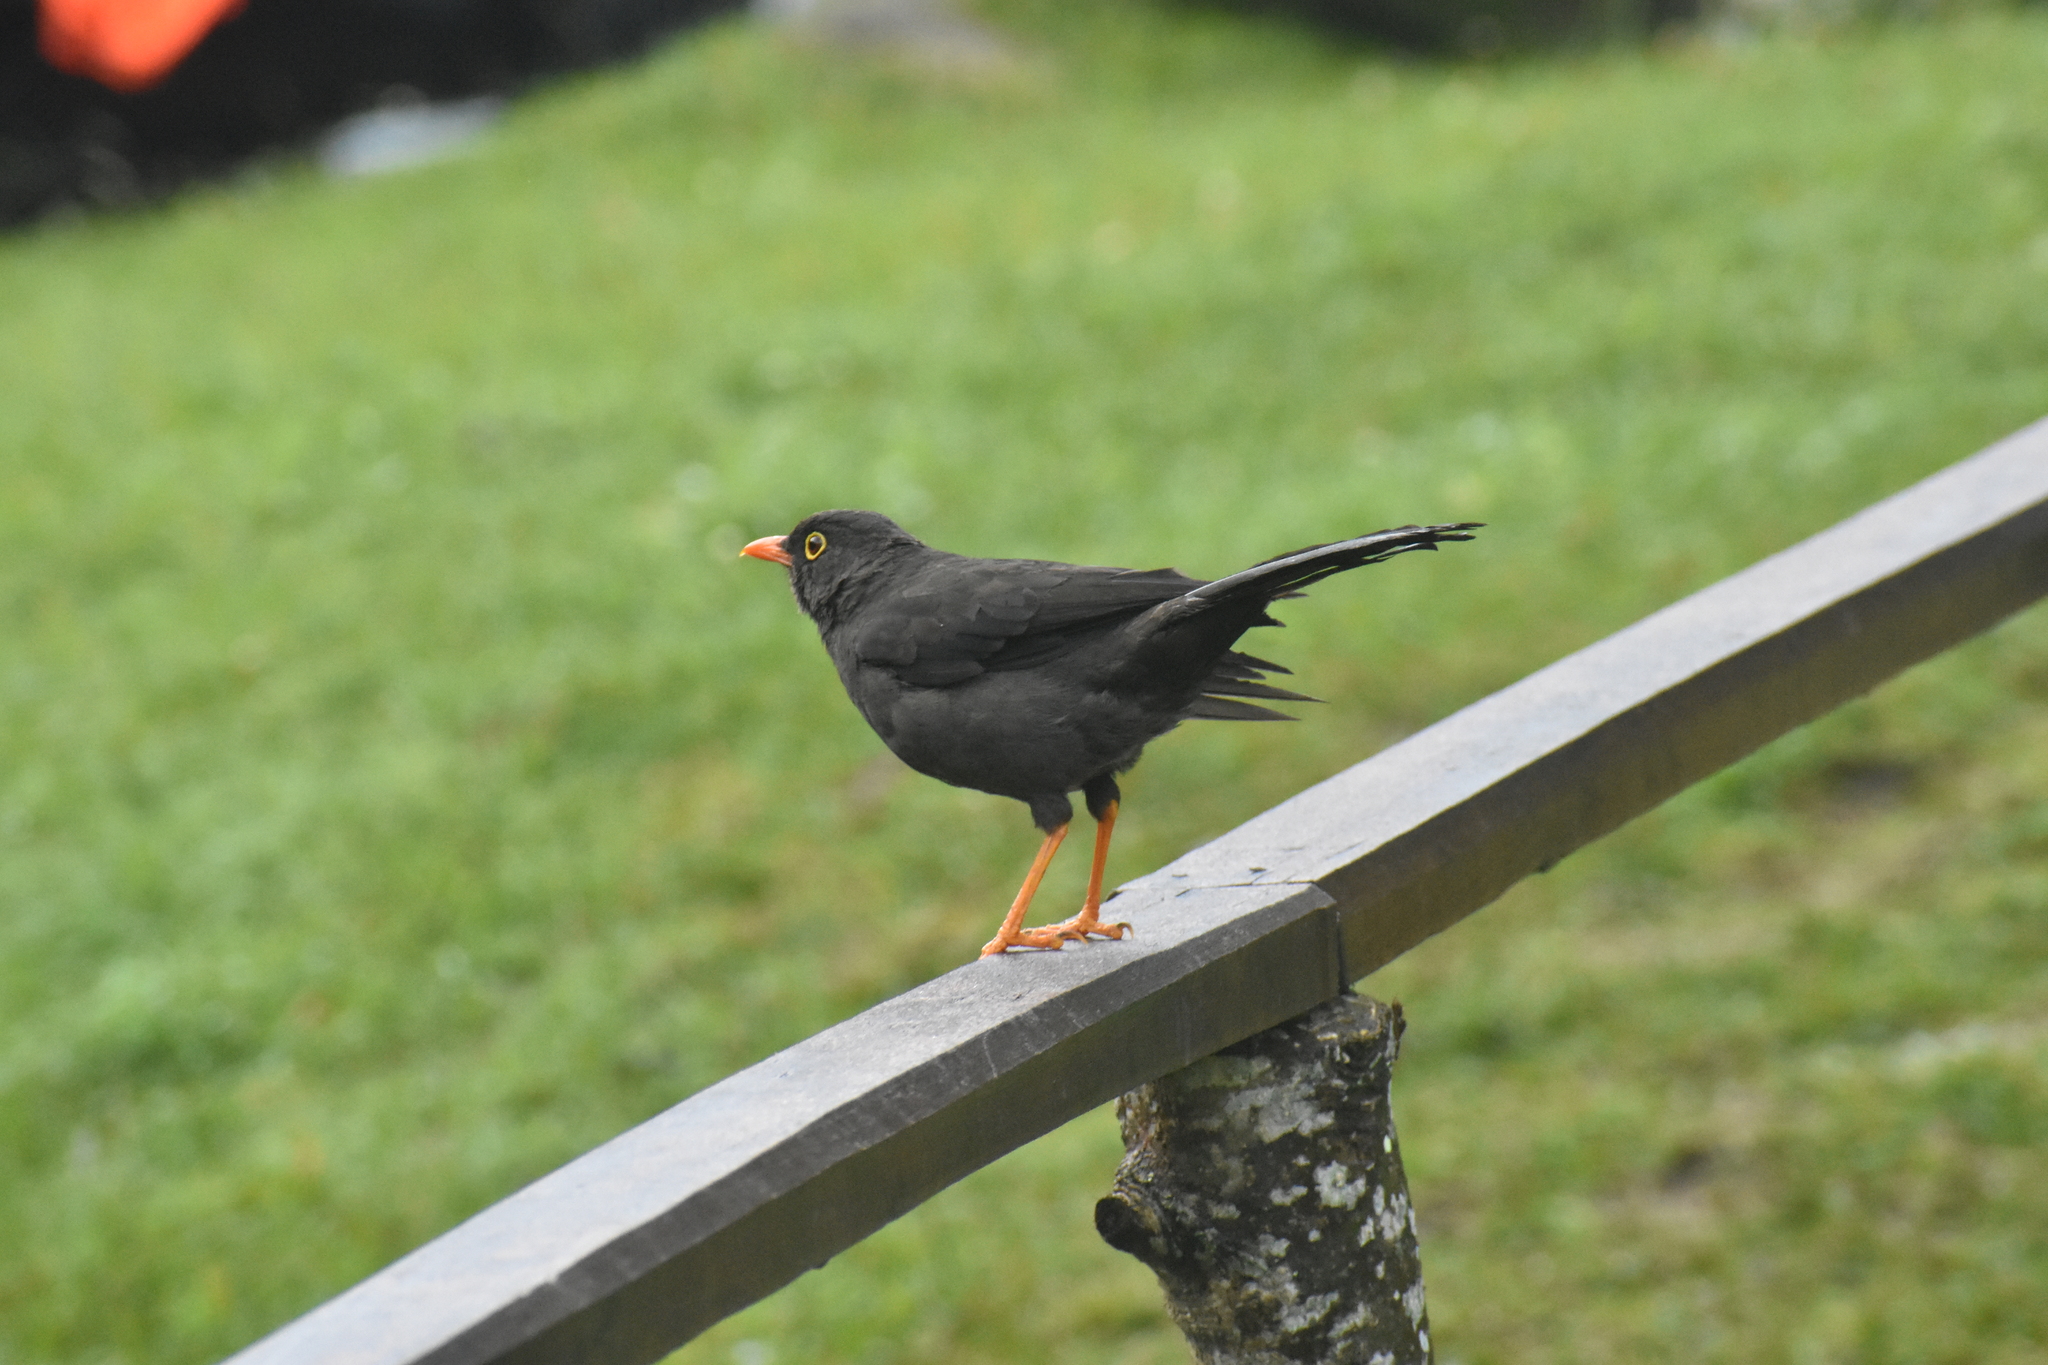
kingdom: Animalia
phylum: Chordata
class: Aves
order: Passeriformes
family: Turdidae
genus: Turdus
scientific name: Turdus fuscater
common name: Great thrush
